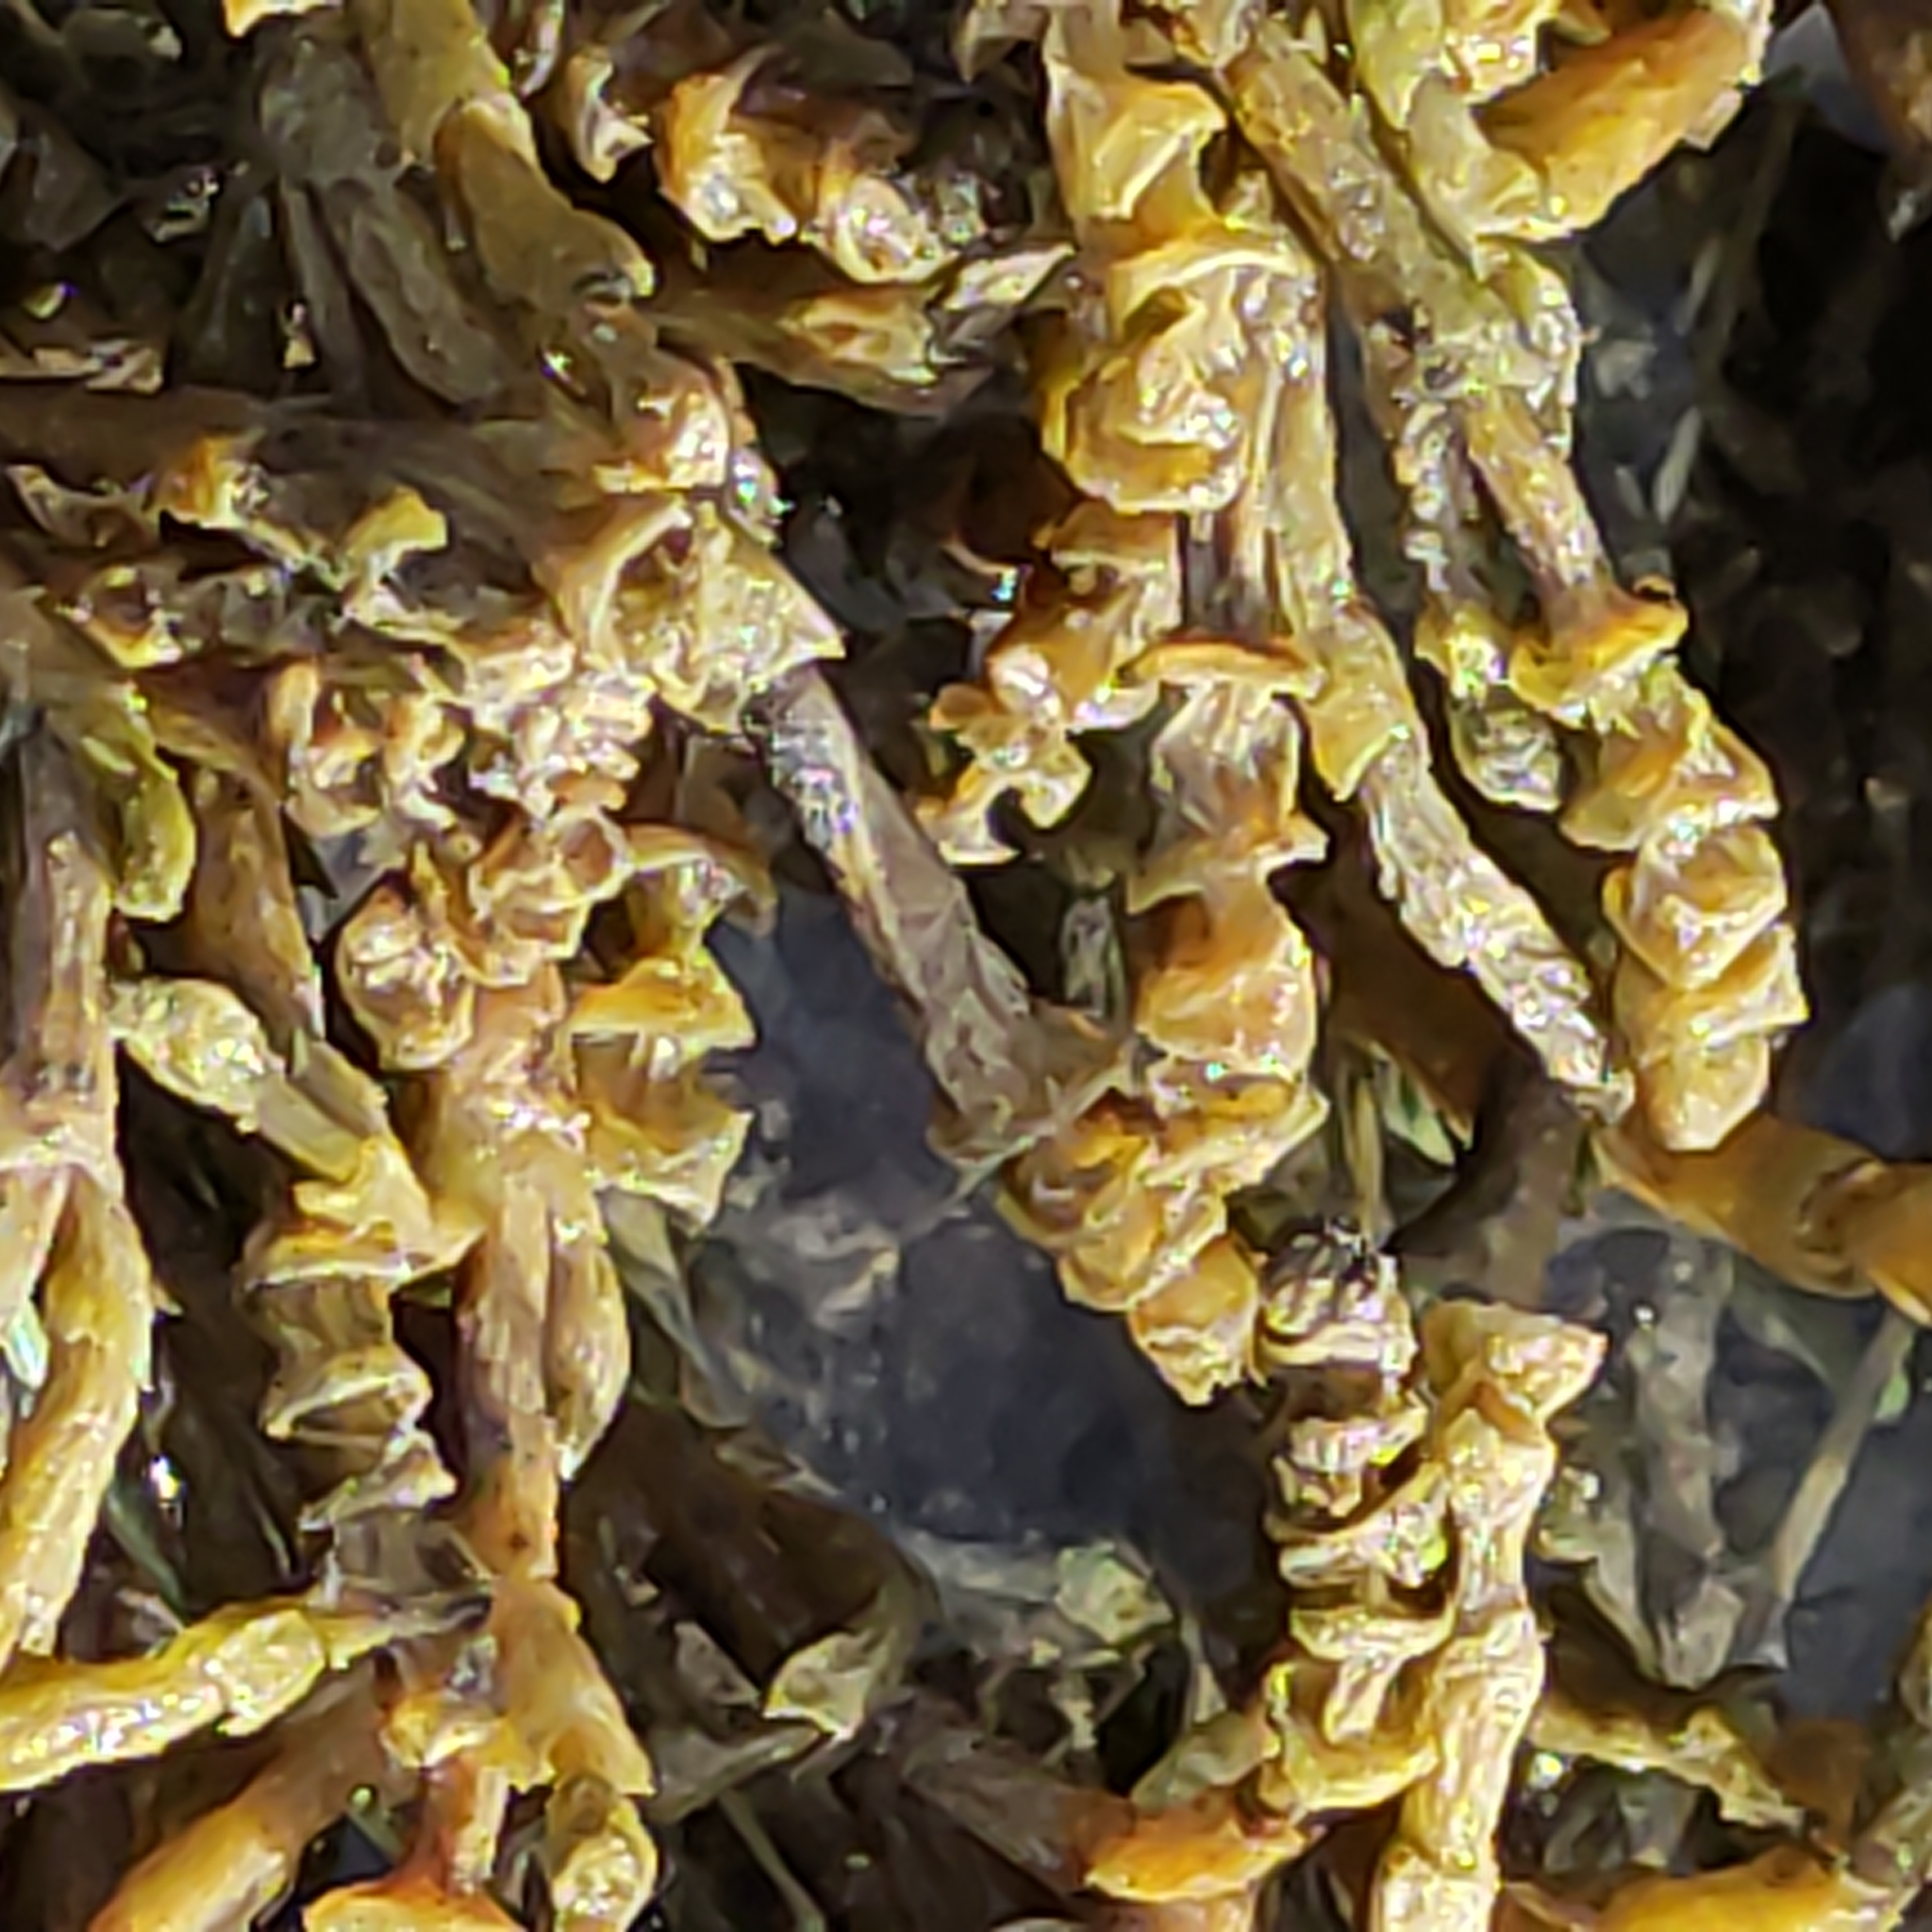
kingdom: Plantae
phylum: Tracheophyta
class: Magnoliopsida
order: Caryophyllales
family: Amaranthaceae
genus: Salicornia
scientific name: Salicornia quinqueflora
